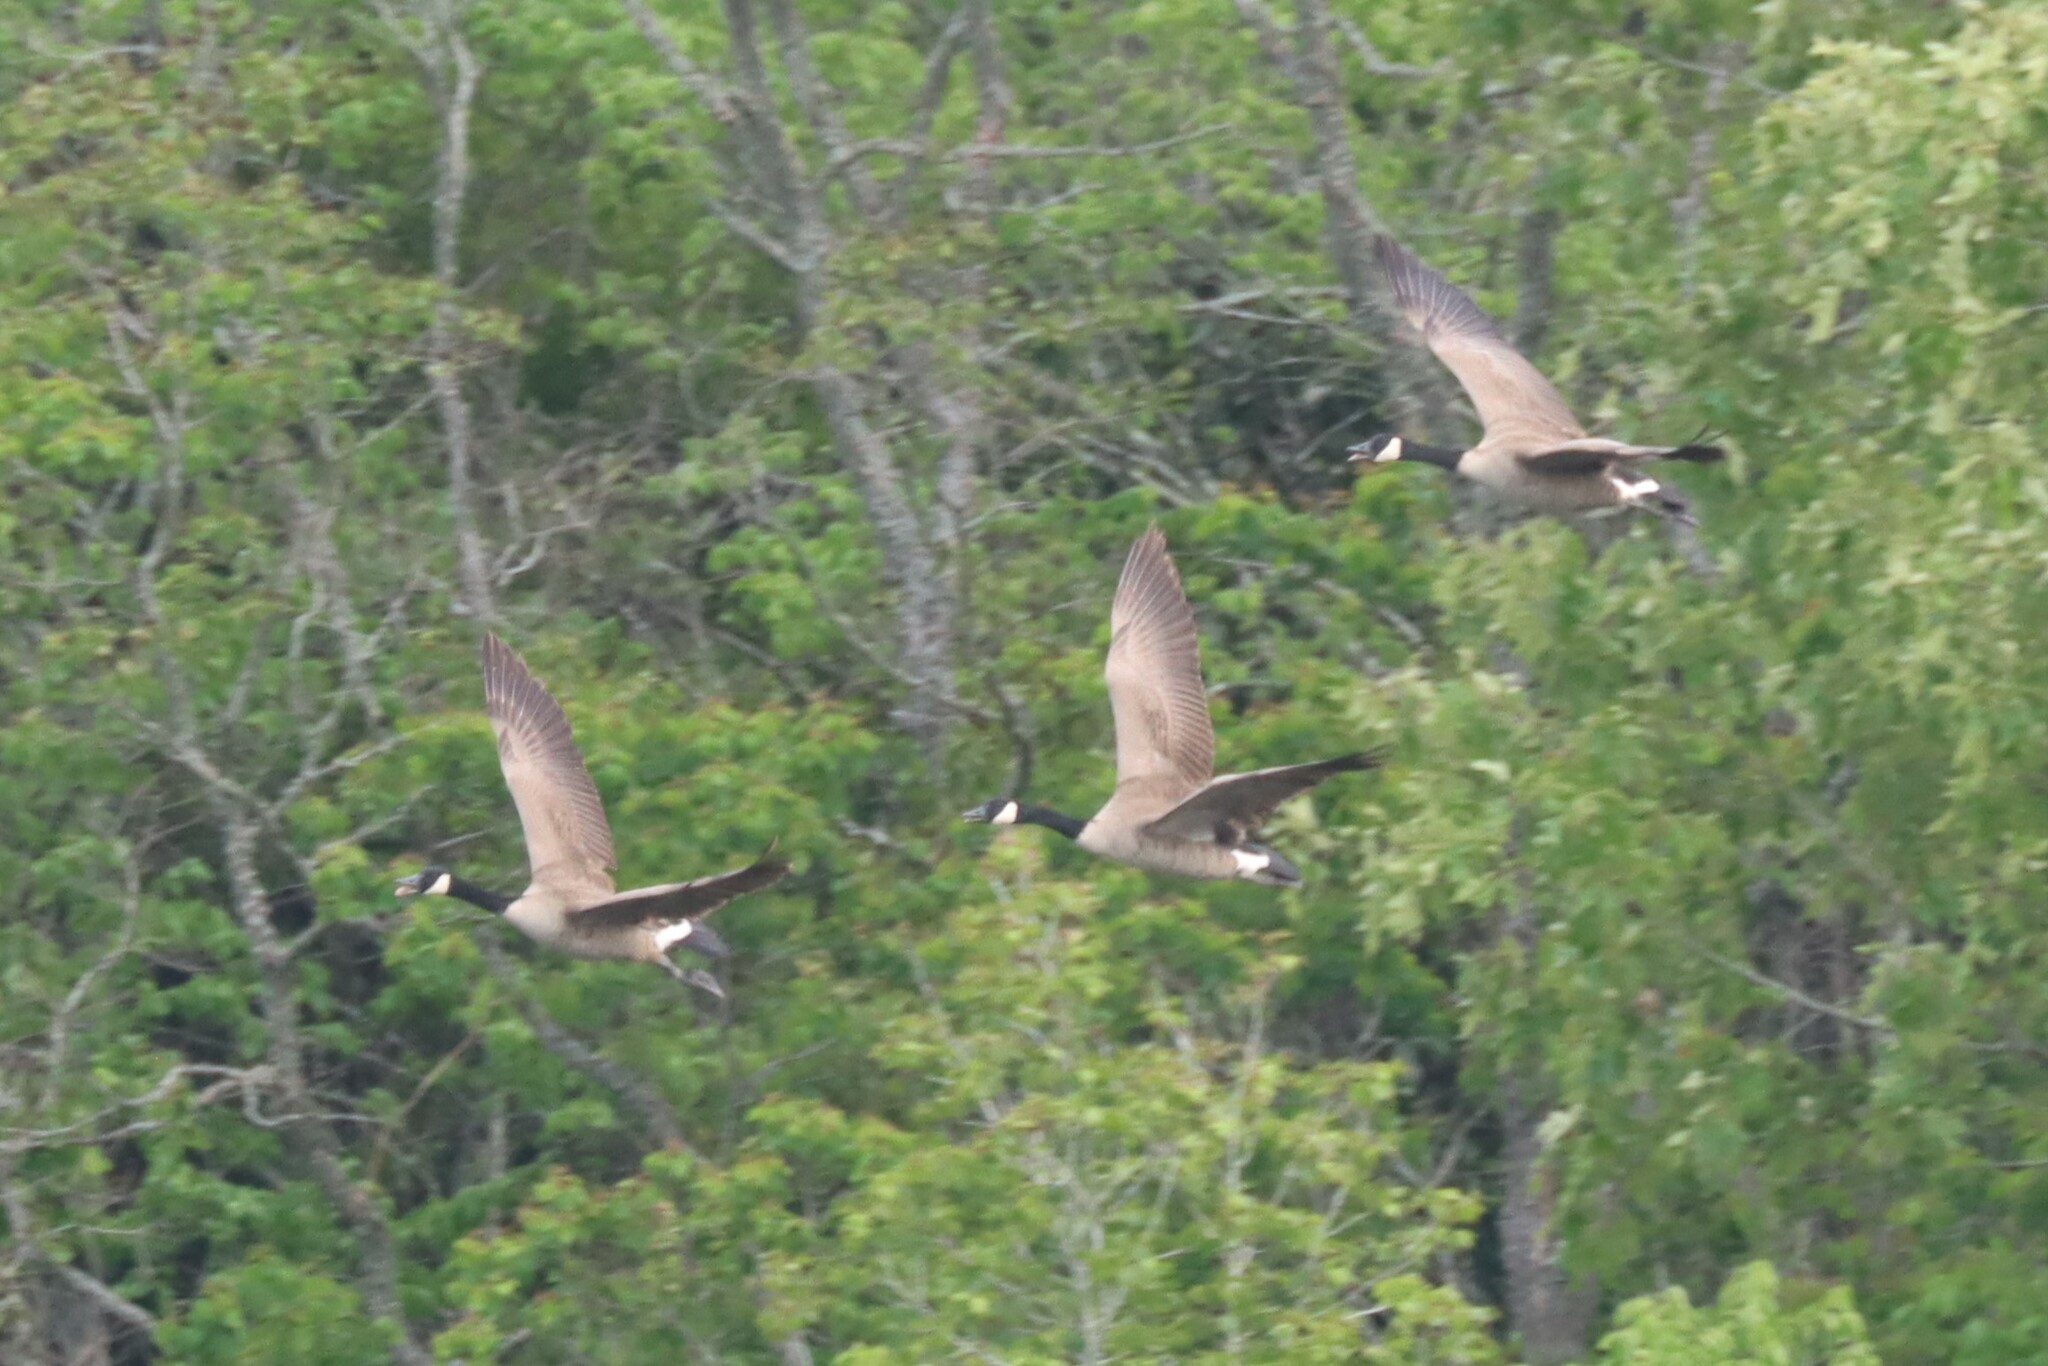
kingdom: Animalia
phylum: Chordata
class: Aves
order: Anseriformes
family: Anatidae
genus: Branta
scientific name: Branta canadensis
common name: Canada goose
